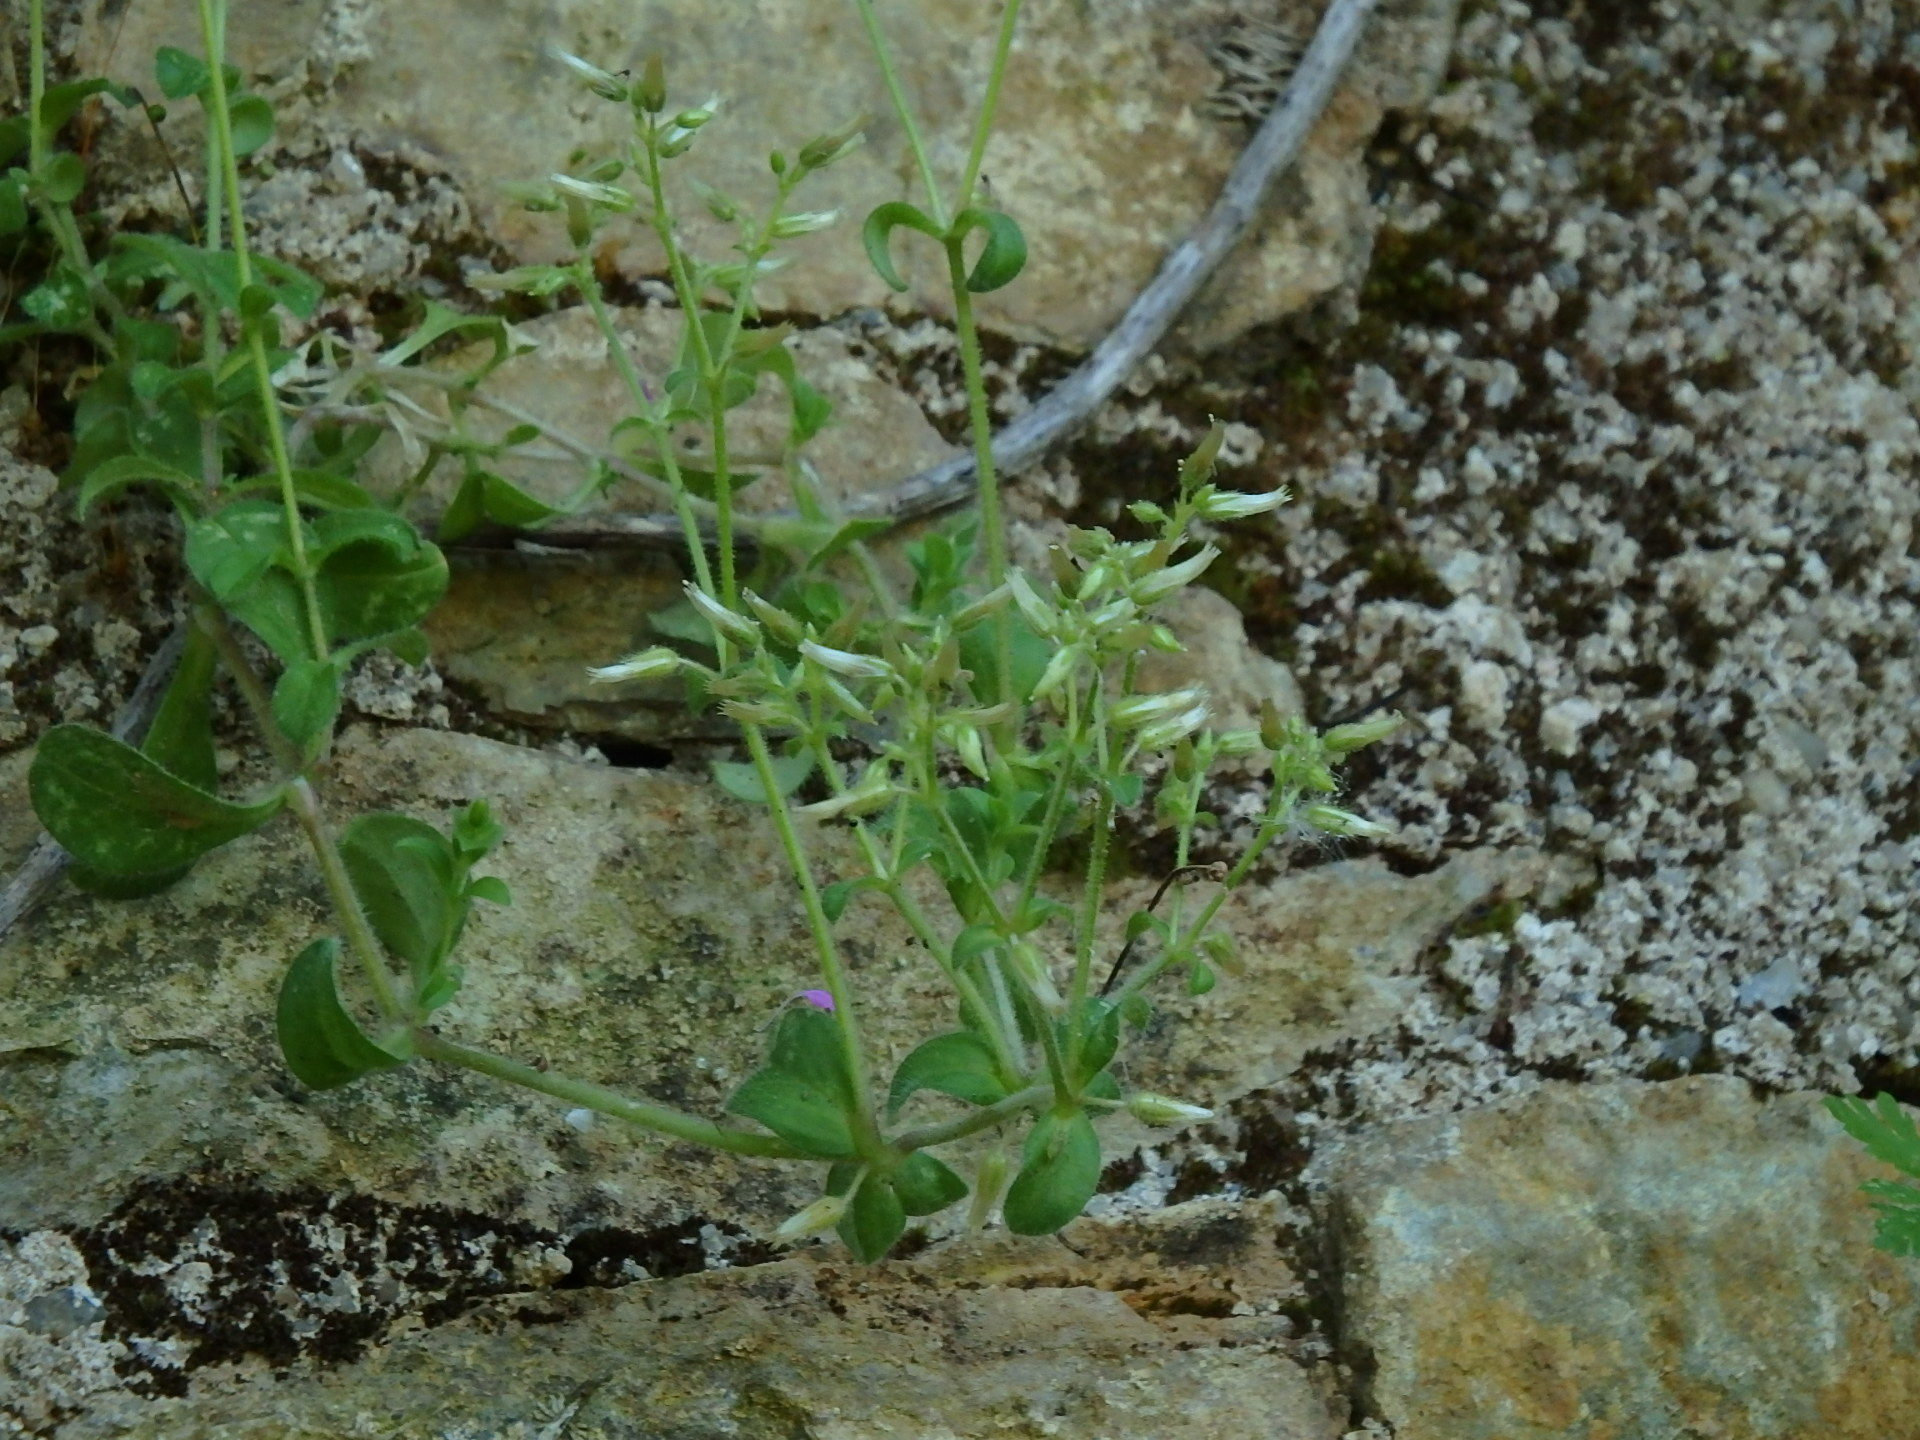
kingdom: Plantae
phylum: Tracheophyta
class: Magnoliopsida
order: Caryophyllales
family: Caryophyllaceae
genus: Cerastium
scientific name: Cerastium glomeratum
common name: Sticky chickweed
